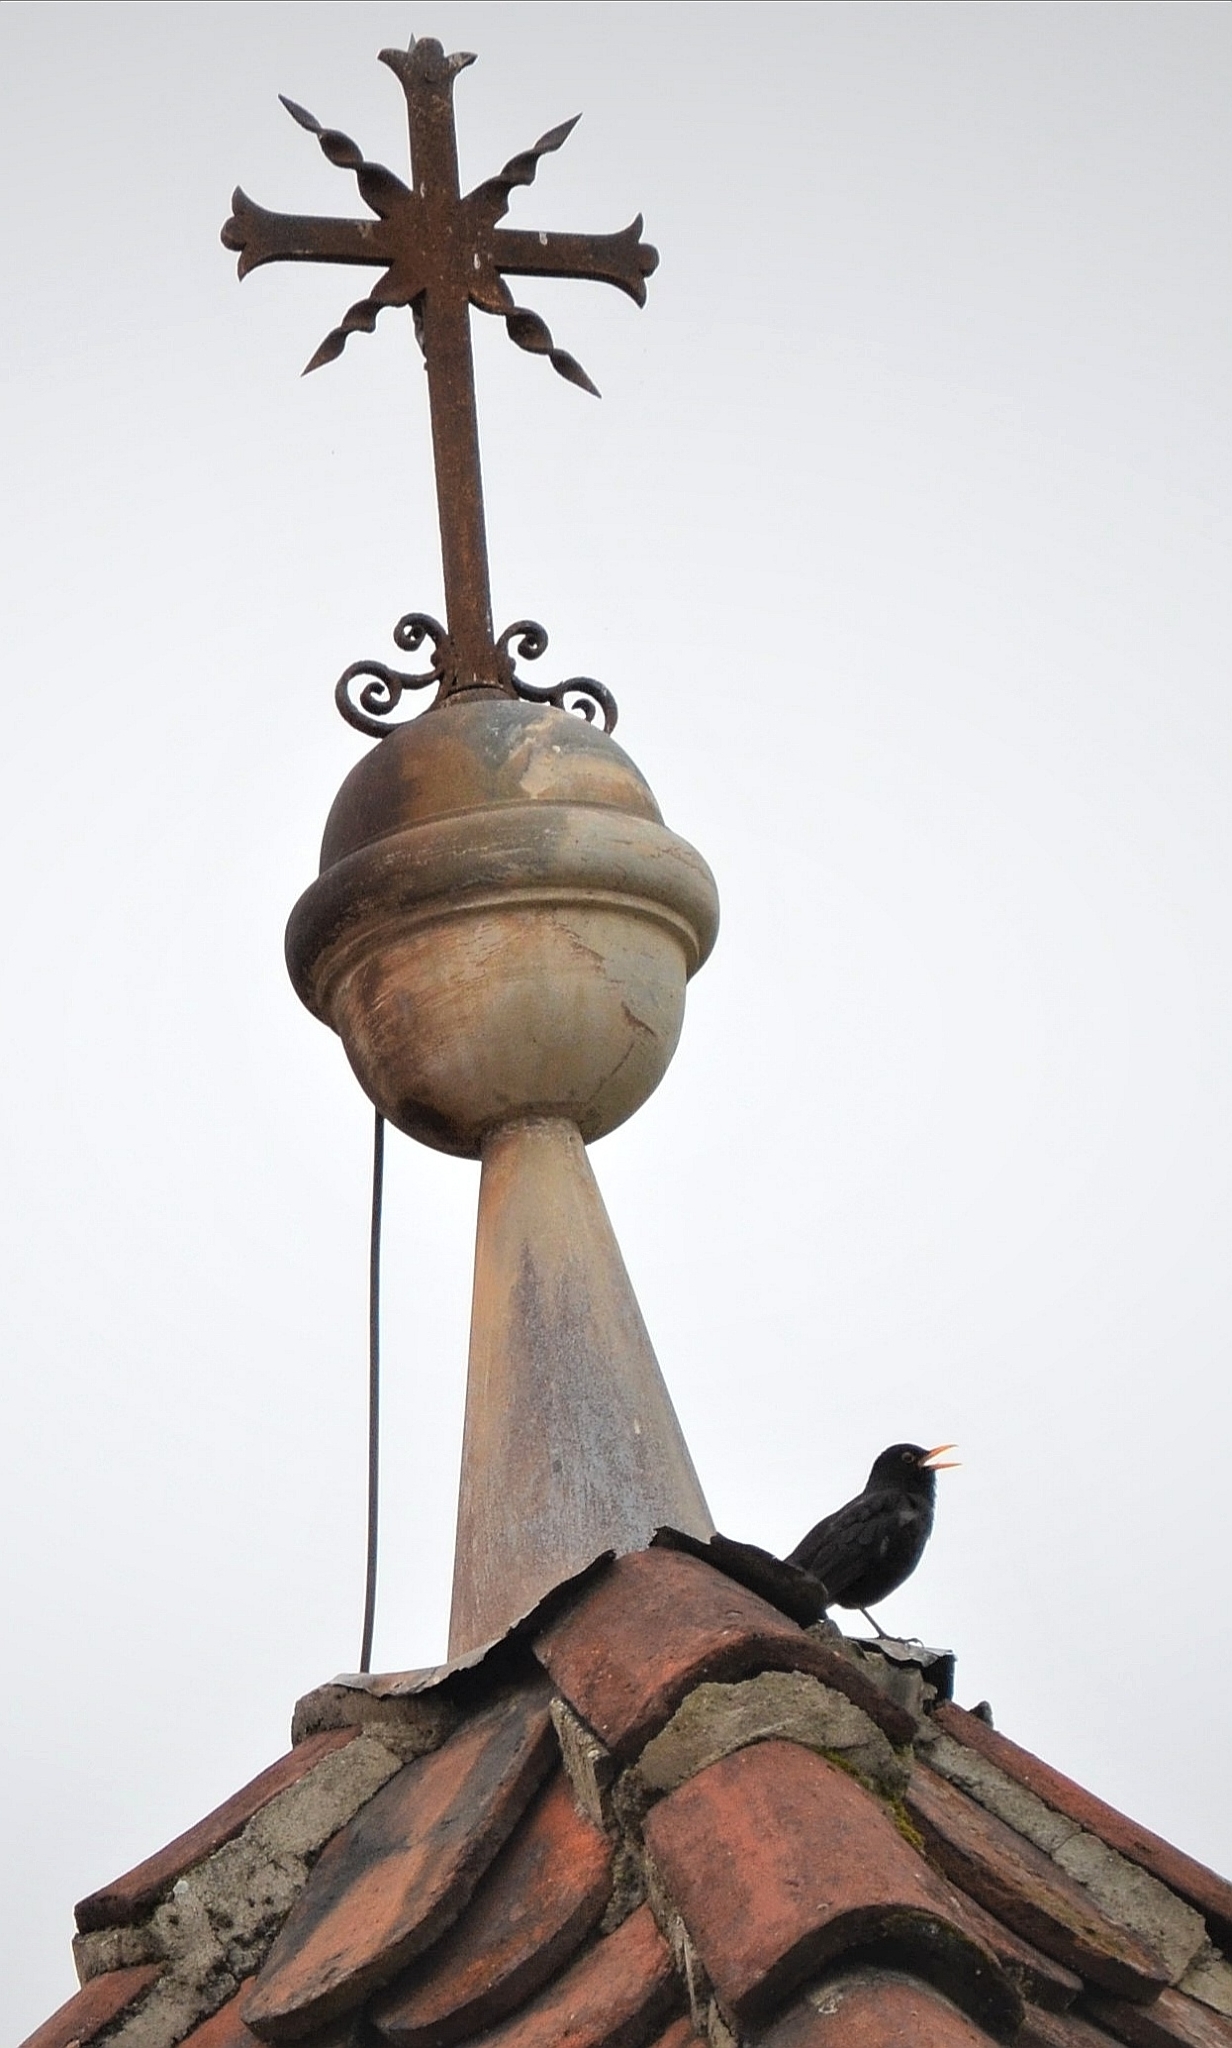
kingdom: Animalia
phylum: Chordata
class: Aves
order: Passeriformes
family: Turdidae
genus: Turdus
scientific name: Turdus merula
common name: Common blackbird
